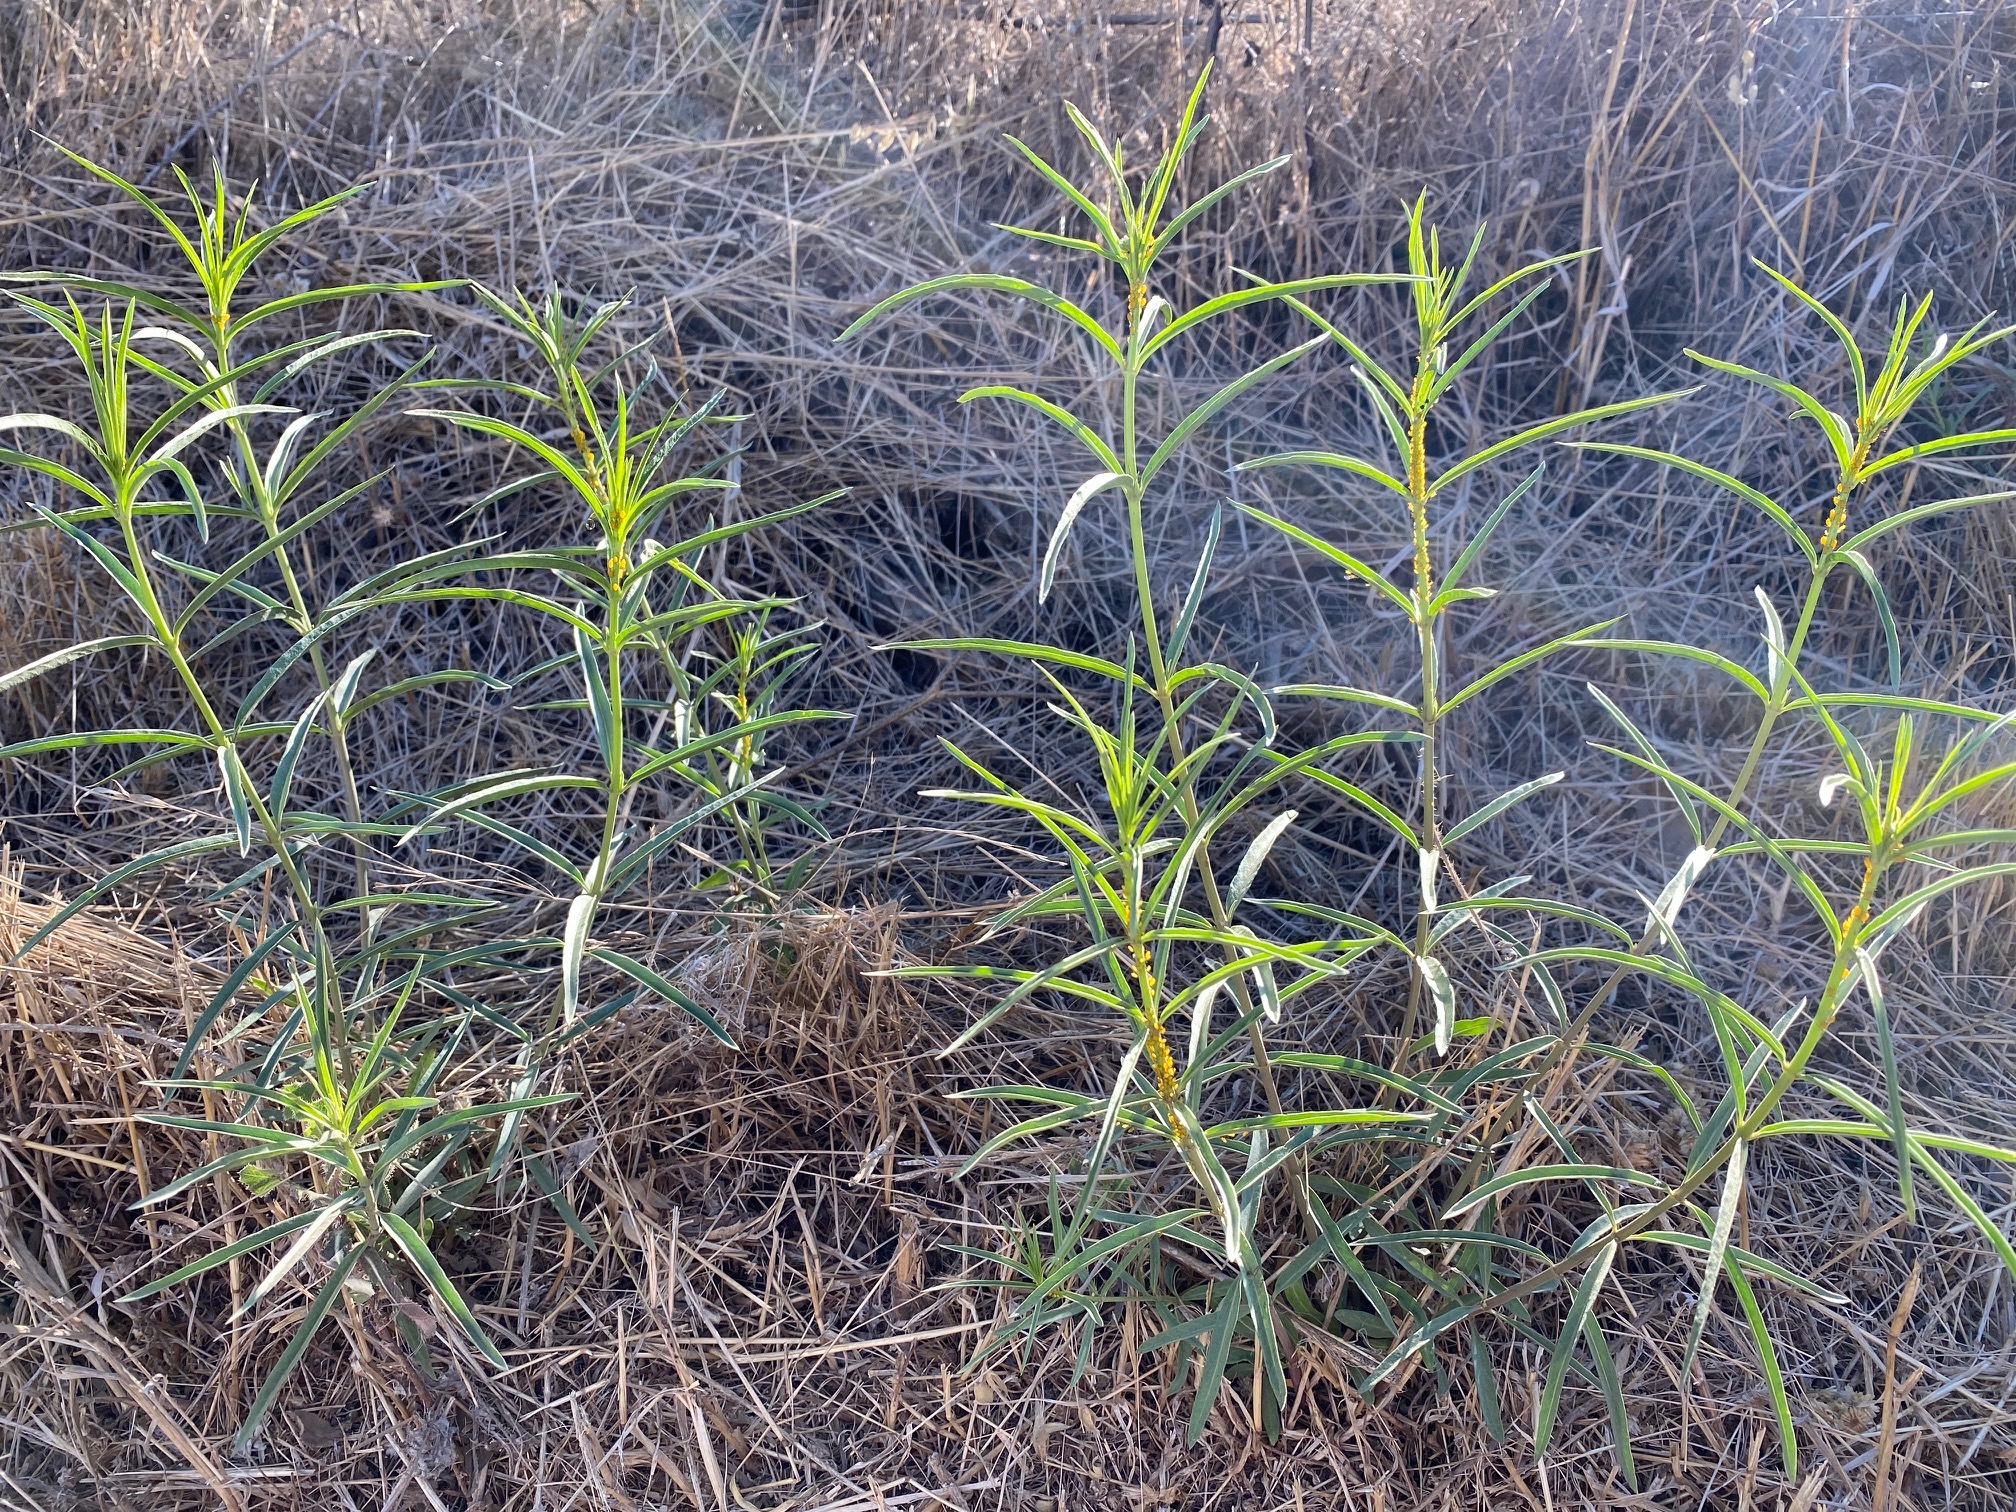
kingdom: Plantae
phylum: Tracheophyta
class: Magnoliopsida
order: Gentianales
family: Apocynaceae
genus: Asclepias
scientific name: Asclepias fascicularis
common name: Mexican milkweed
